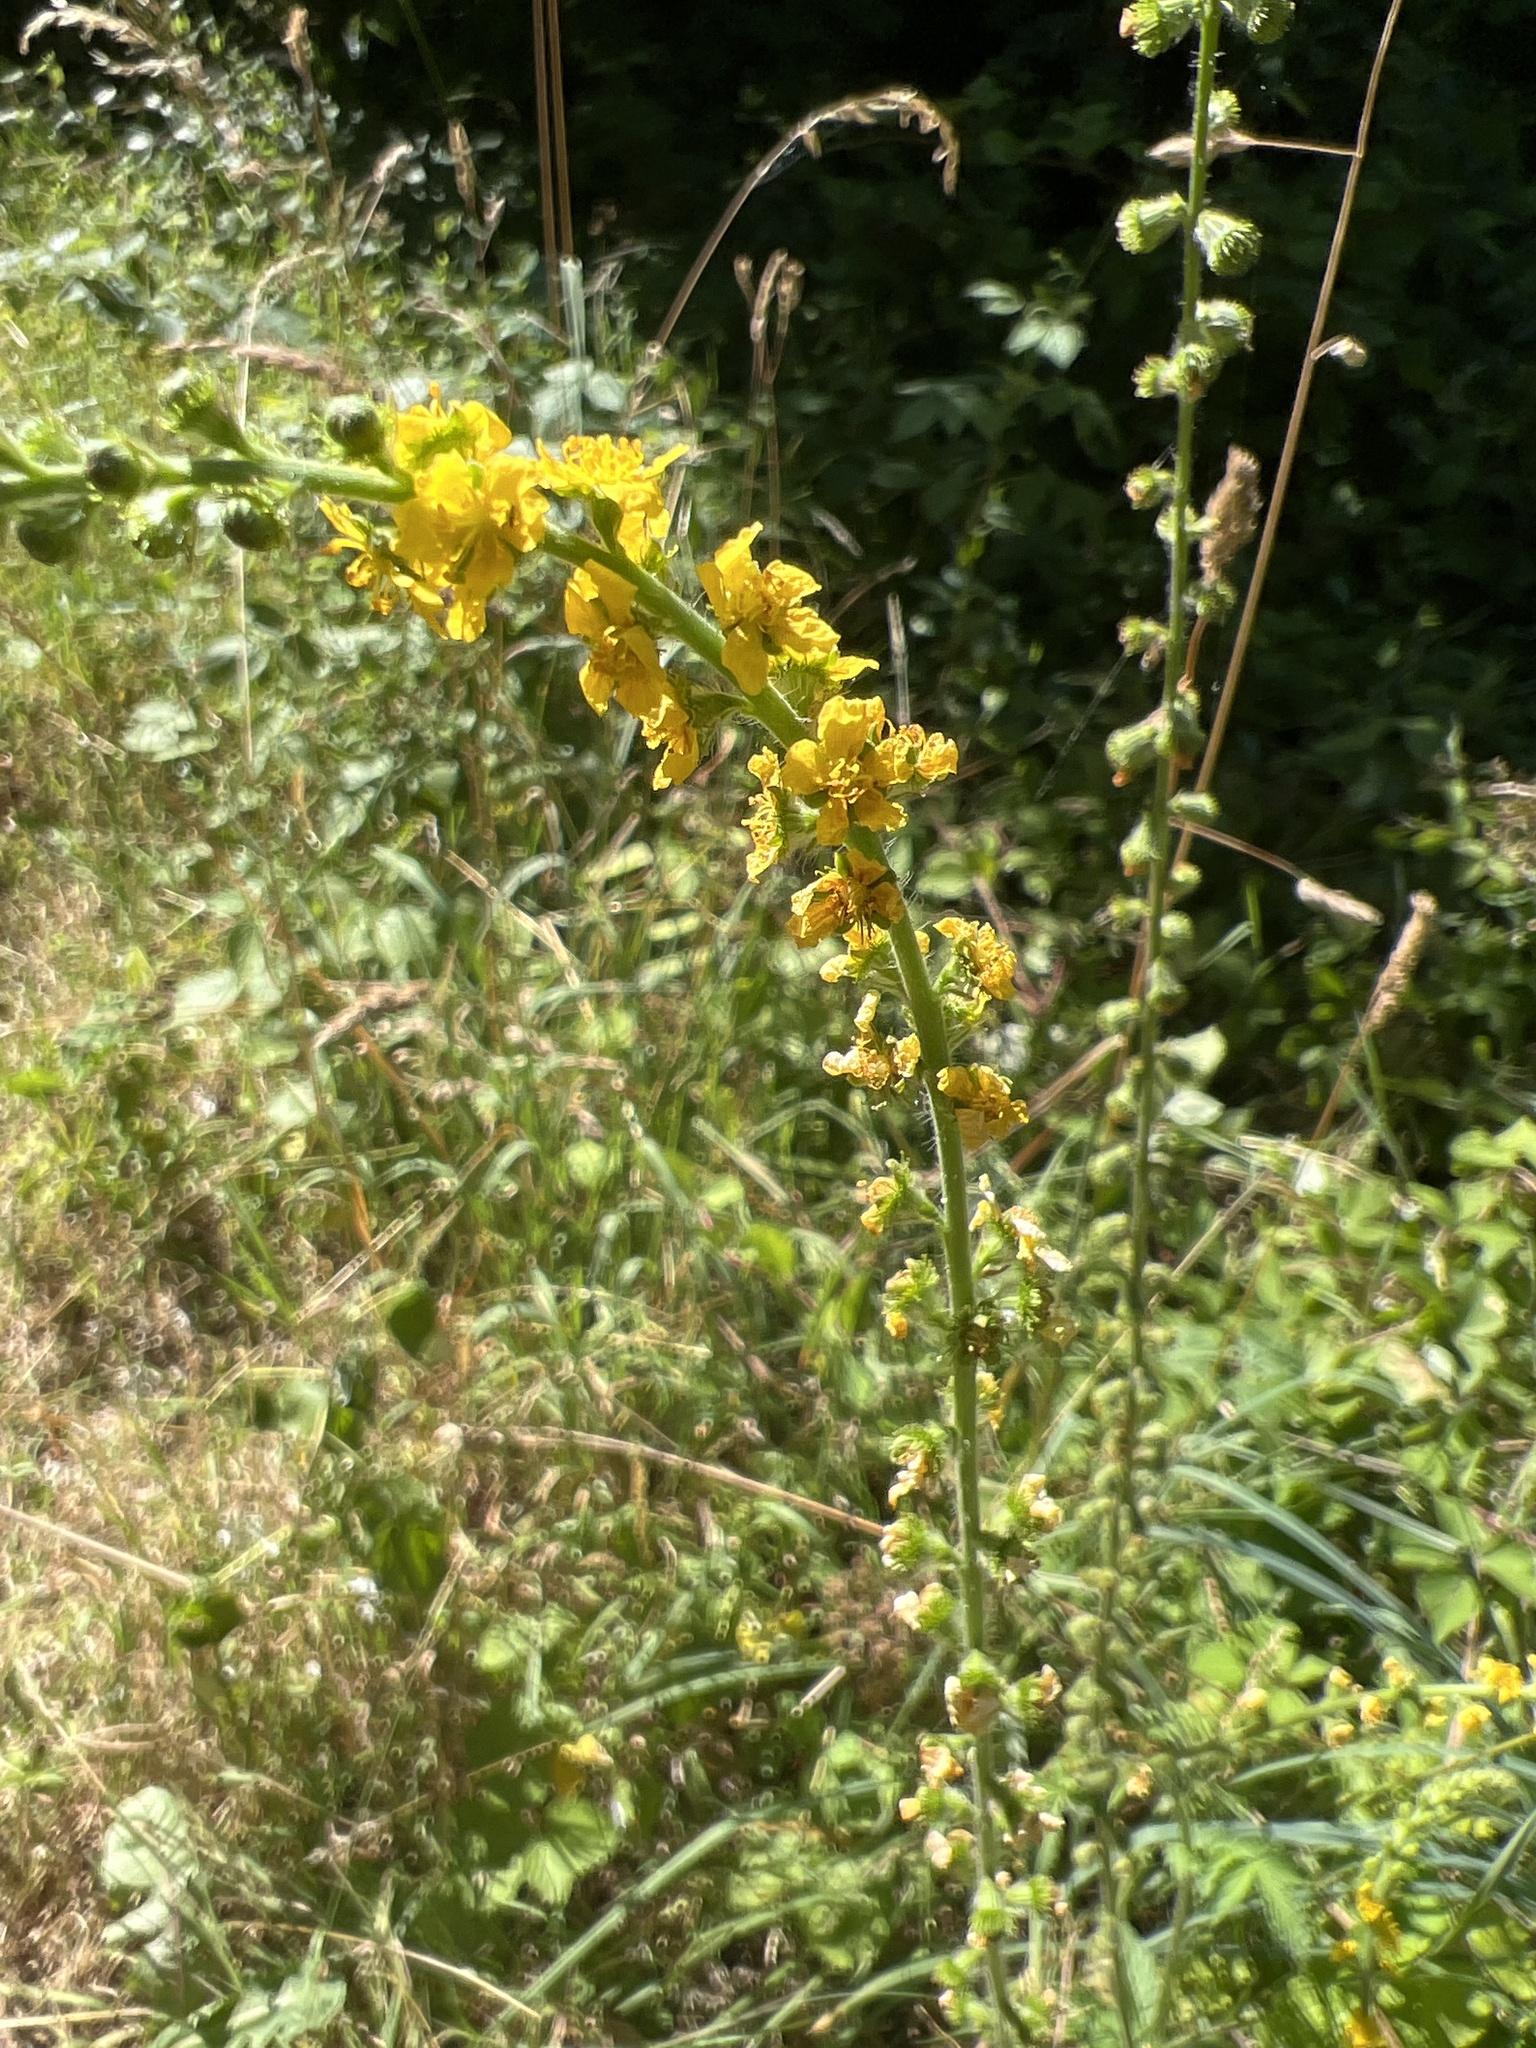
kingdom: Plantae
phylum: Tracheophyta
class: Magnoliopsida
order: Rosales
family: Rosaceae
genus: Agrimonia
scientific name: Agrimonia eupatoria
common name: Agrimony
